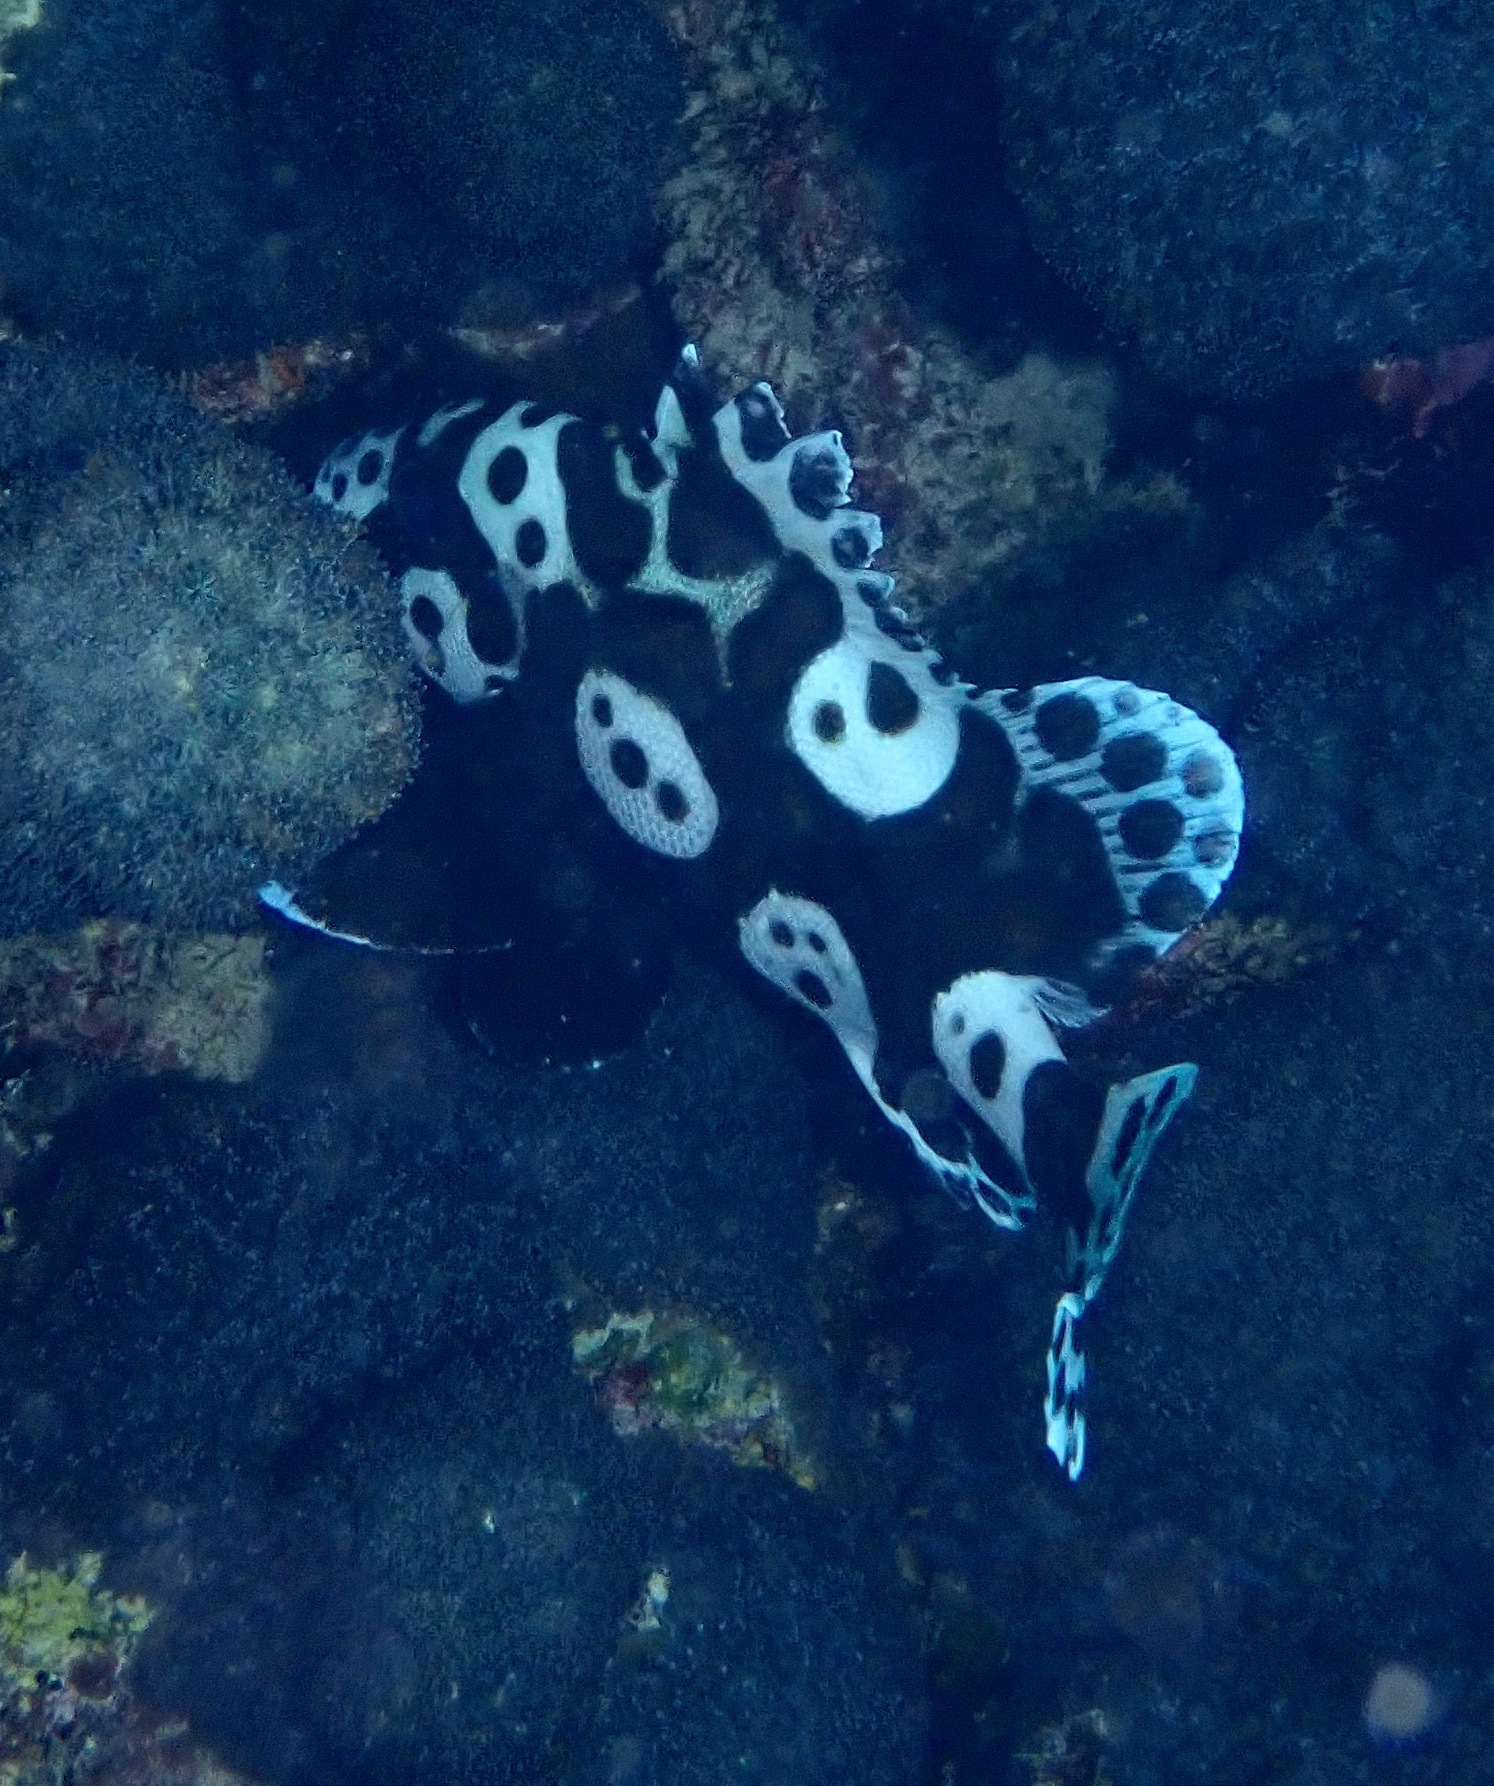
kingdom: Animalia
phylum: Chordata
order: Perciformes
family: Haemulidae
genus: Plectorhinchus
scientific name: Plectorhinchus chaetodonoides
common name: Harlequin sweetlips
